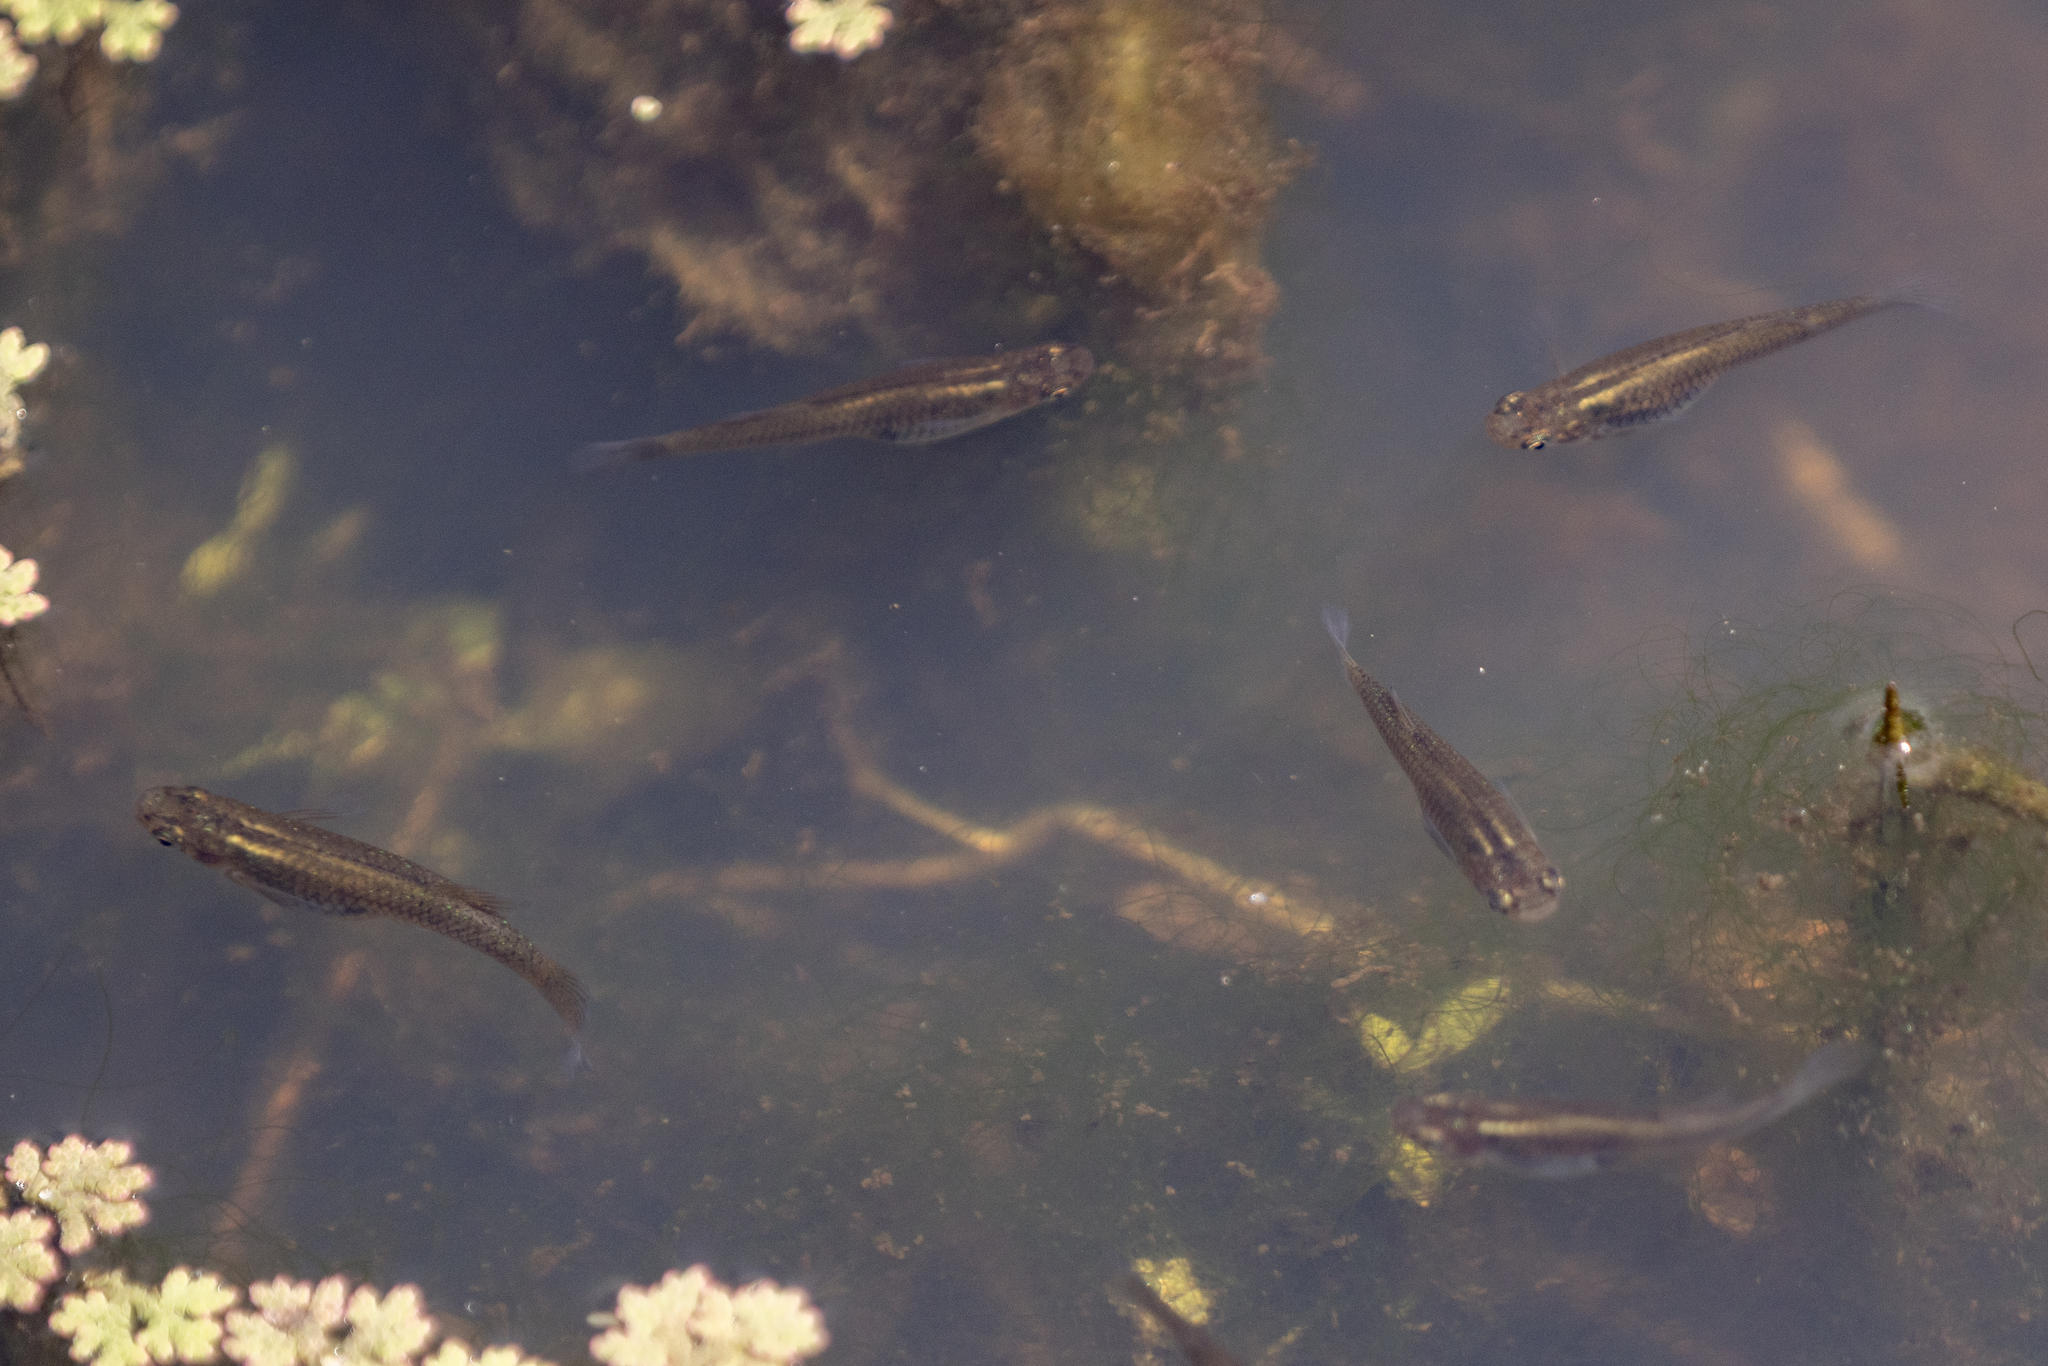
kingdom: Animalia
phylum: Chordata
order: Cyprinodontiformes
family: Poeciliidae
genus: Gambusia
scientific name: Gambusia affinis
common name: Mosquitofish
